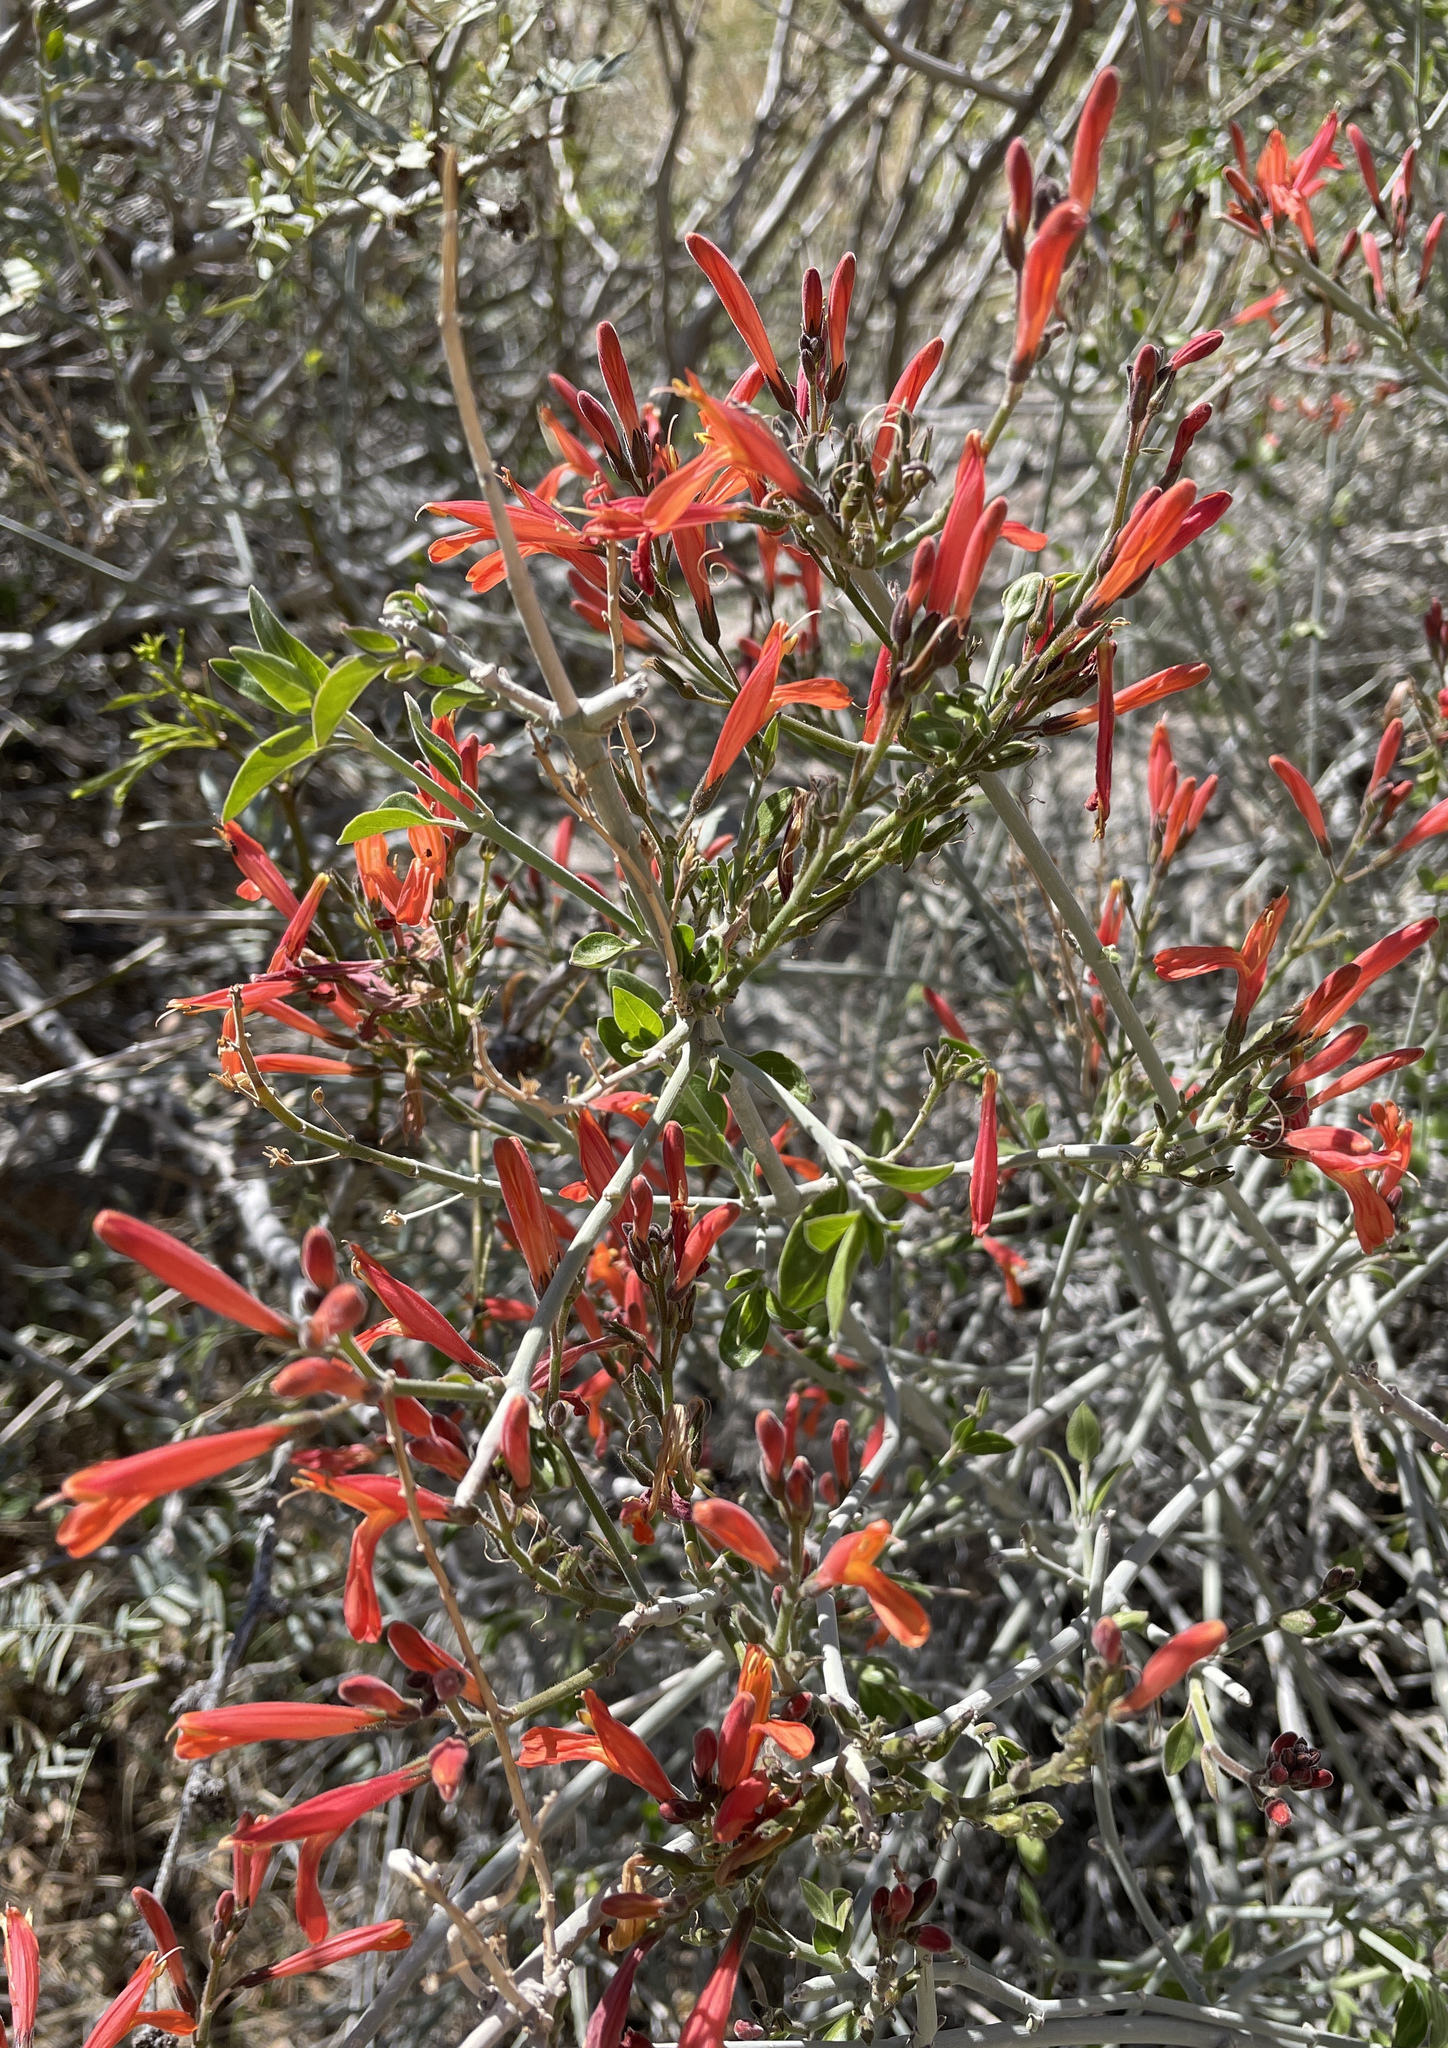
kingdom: Plantae
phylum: Tracheophyta
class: Magnoliopsida
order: Lamiales
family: Acanthaceae
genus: Justicia
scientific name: Justicia californica
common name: Chuparosa-honeysuckle
